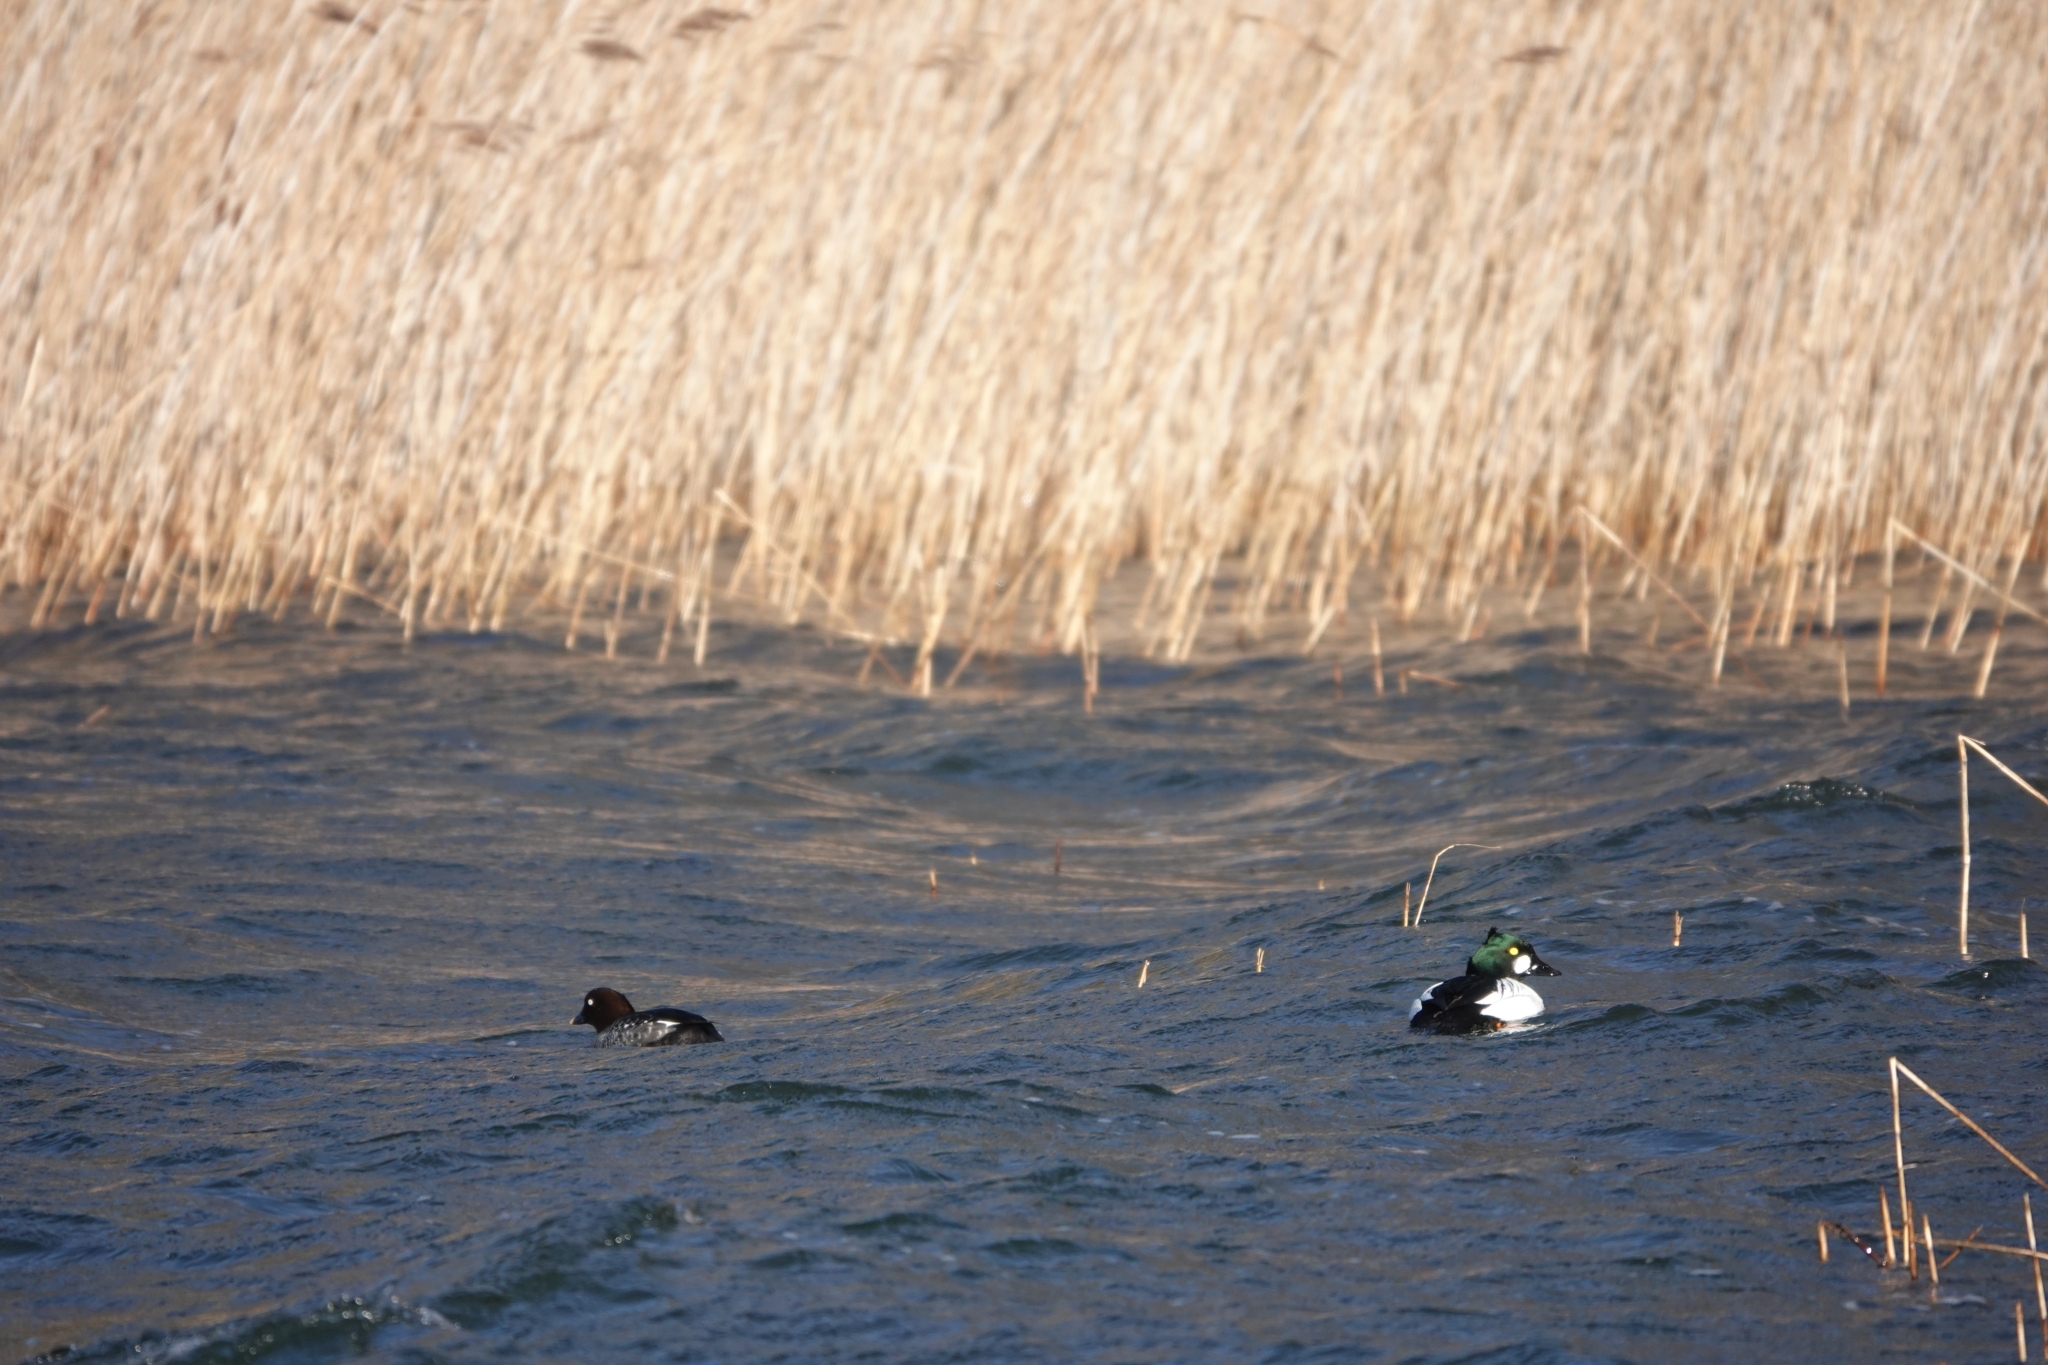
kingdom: Animalia
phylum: Chordata
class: Aves
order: Anseriformes
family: Anatidae
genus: Bucephala
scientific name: Bucephala clangula
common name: Common goldeneye
